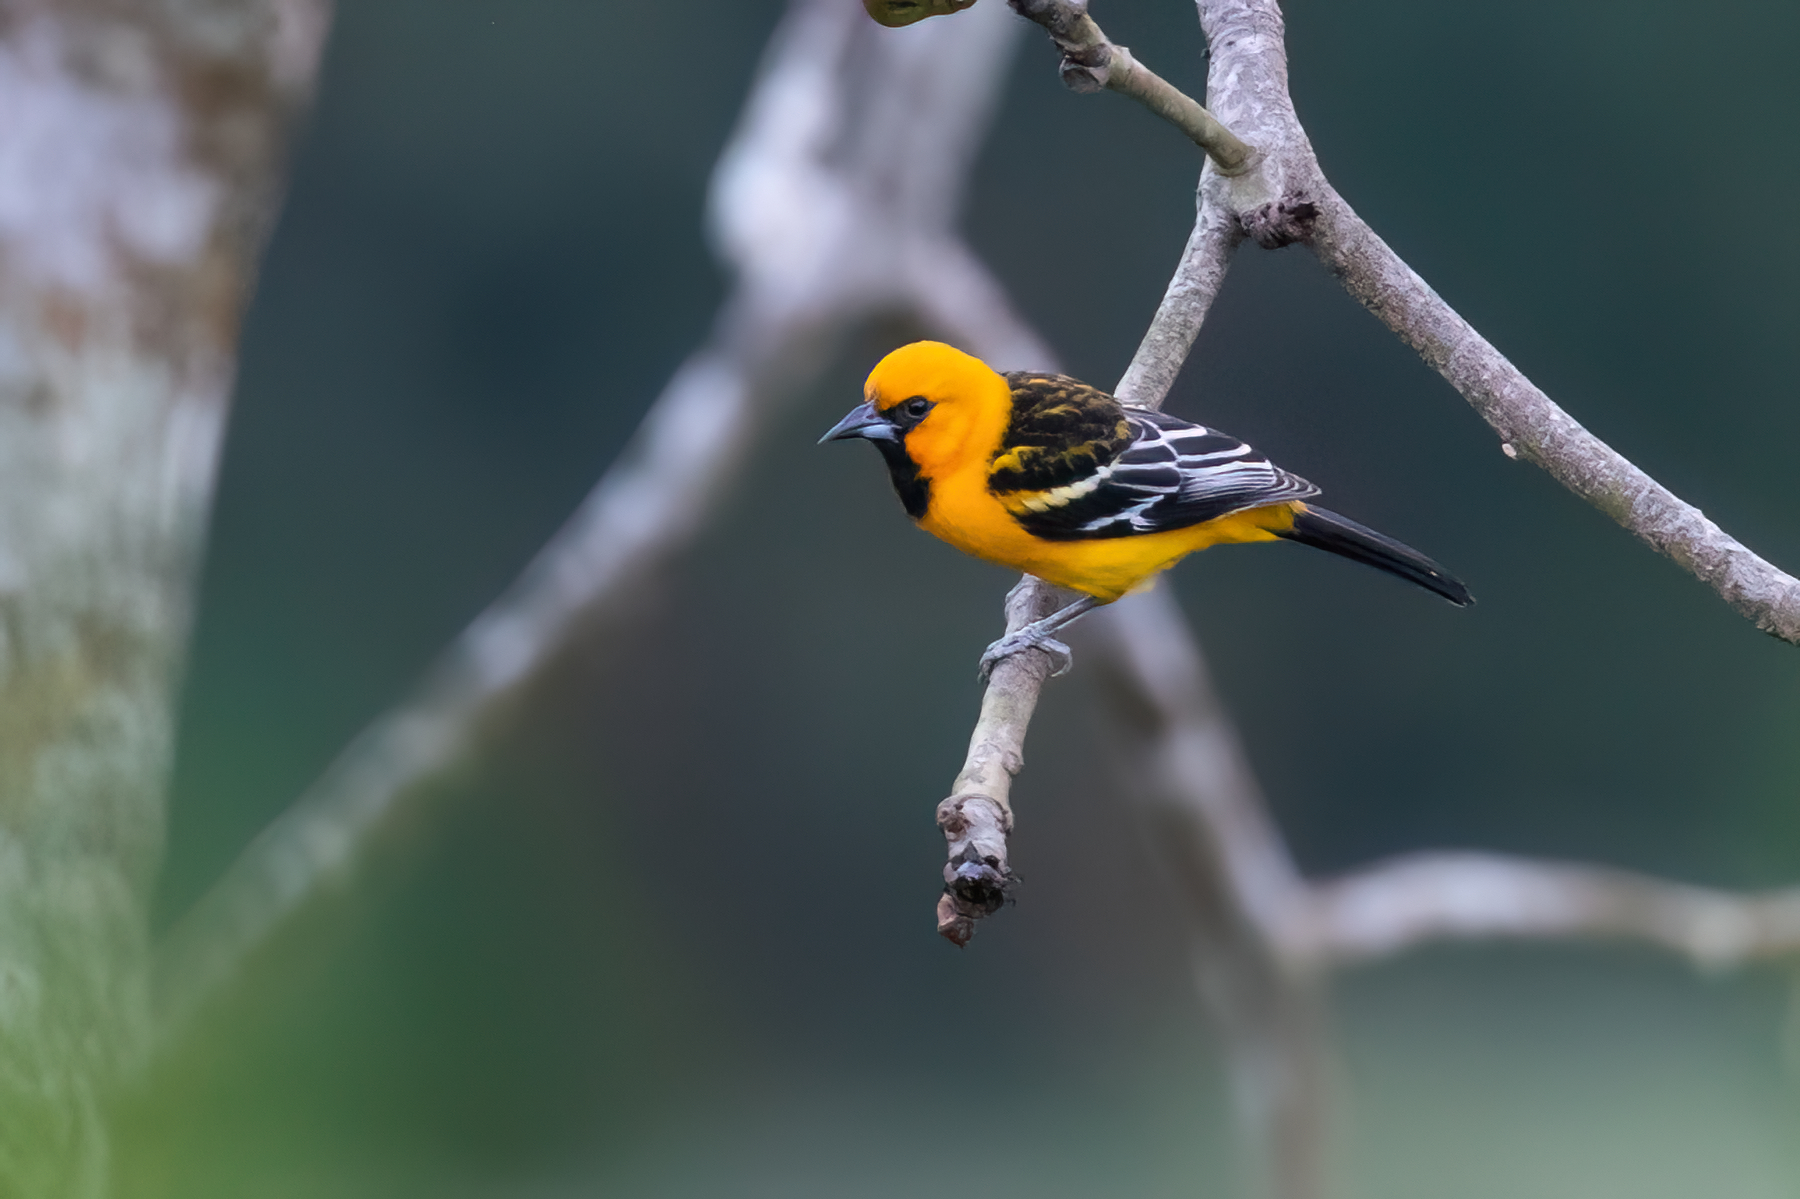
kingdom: Animalia
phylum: Chordata
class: Aves
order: Passeriformes
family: Icteridae
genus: Icterus
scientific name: Icterus pustulatus
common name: Streak-backed oriole
